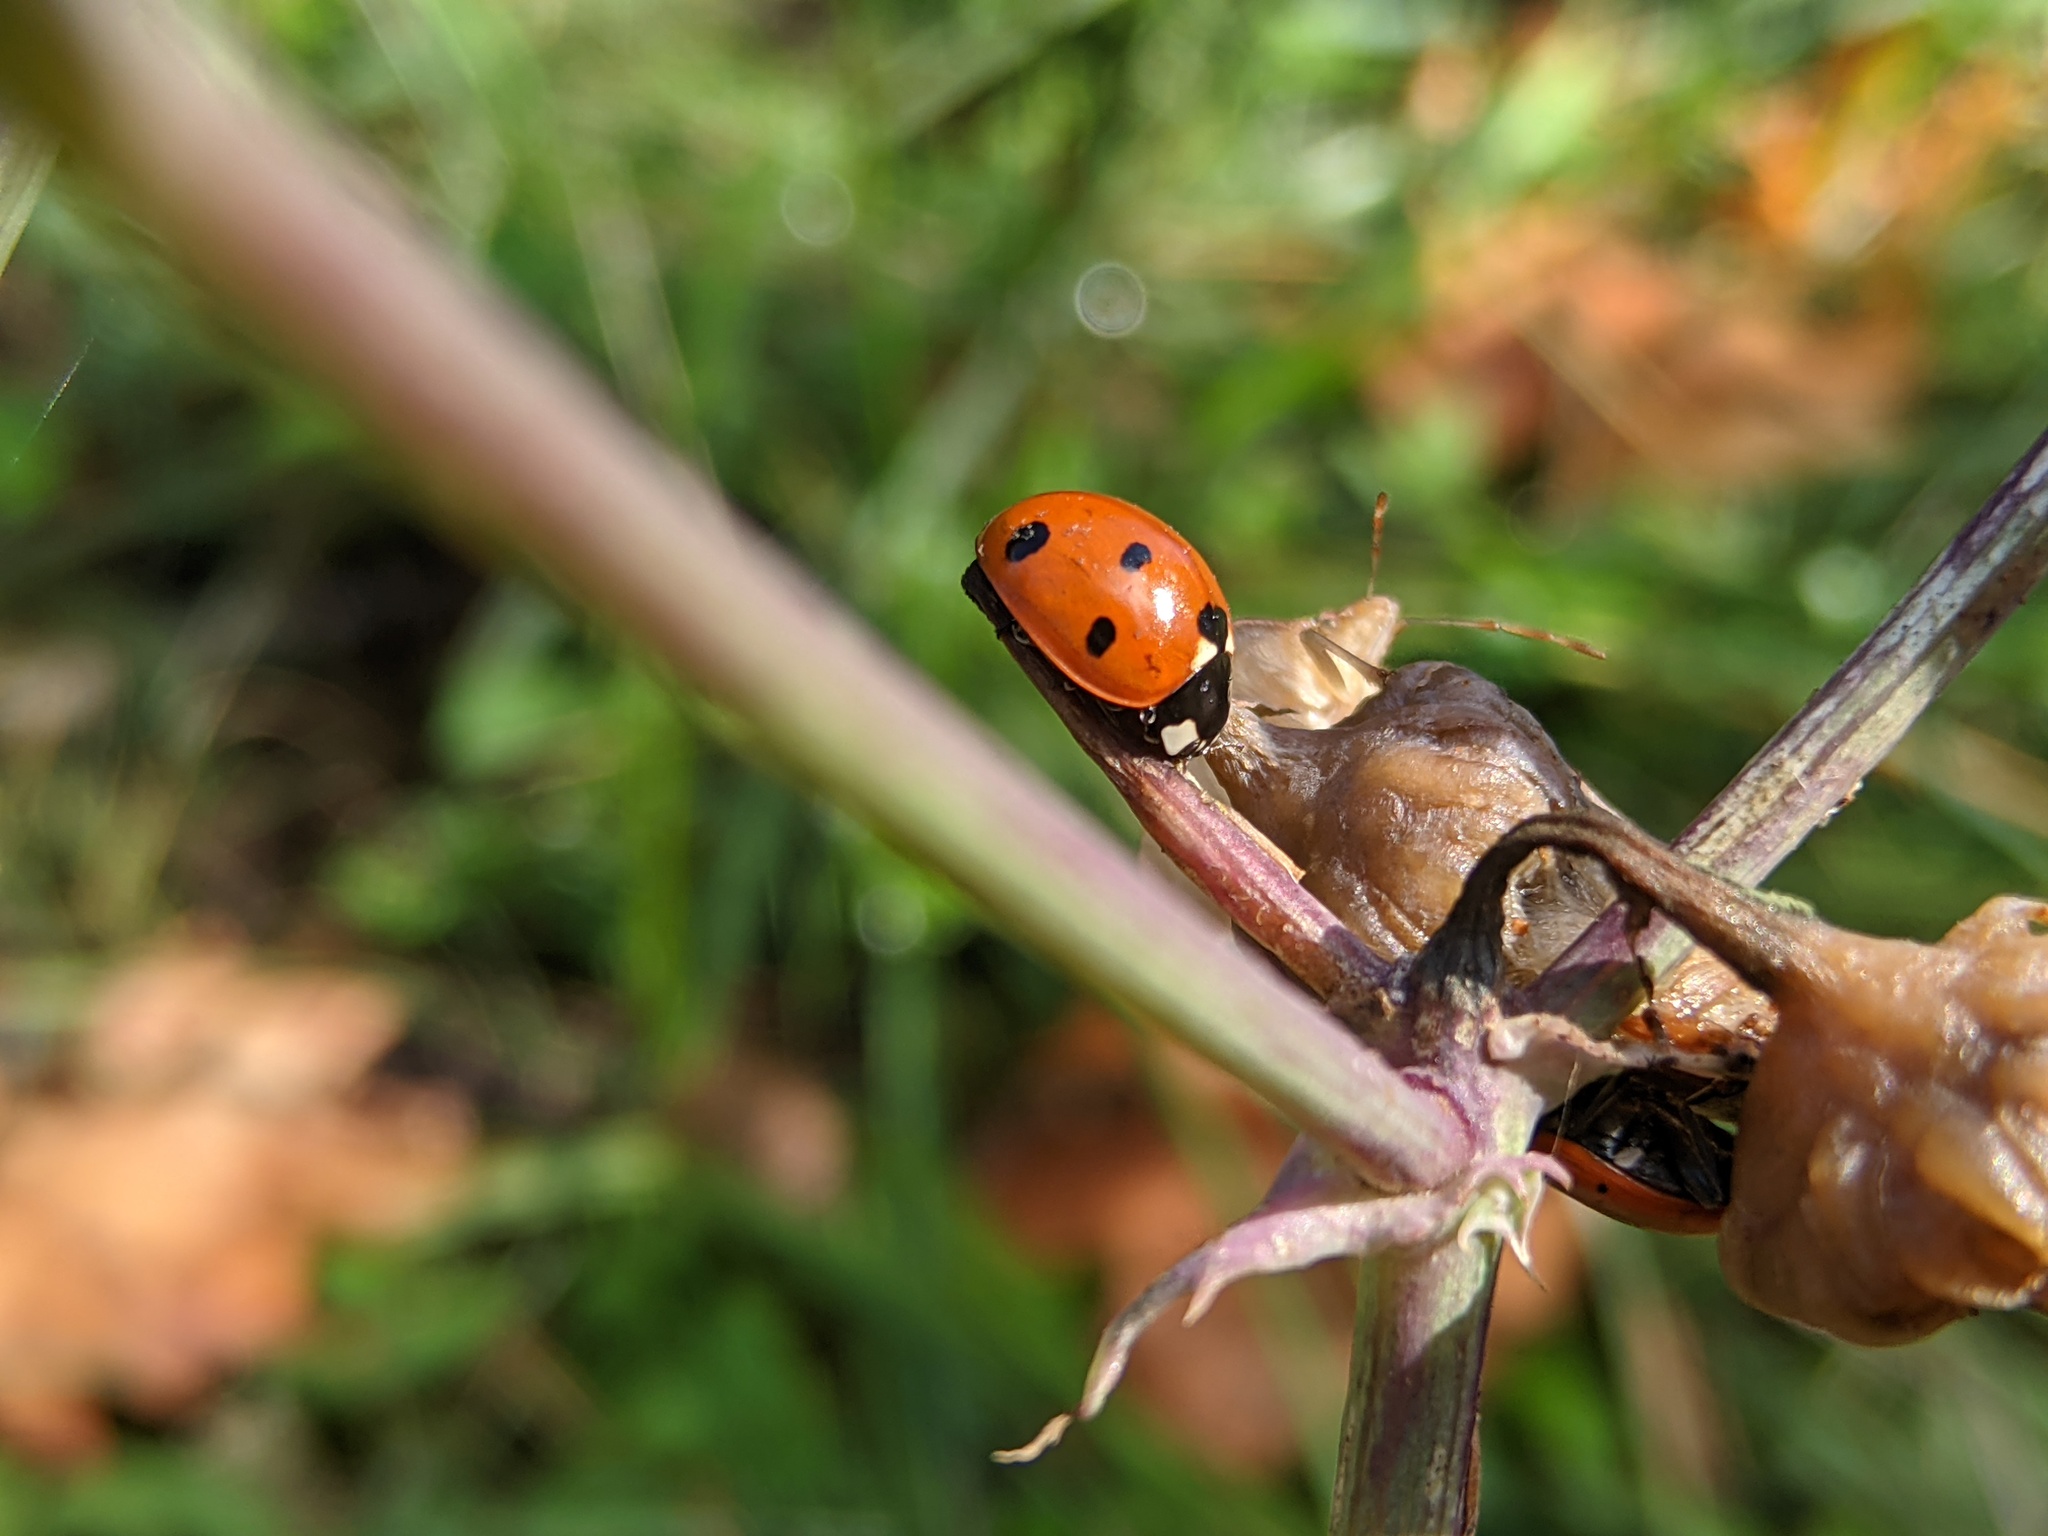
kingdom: Animalia
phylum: Arthropoda
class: Insecta
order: Coleoptera
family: Coccinellidae
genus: Coccinella
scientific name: Coccinella septempunctata
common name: Sevenspotted lady beetle
